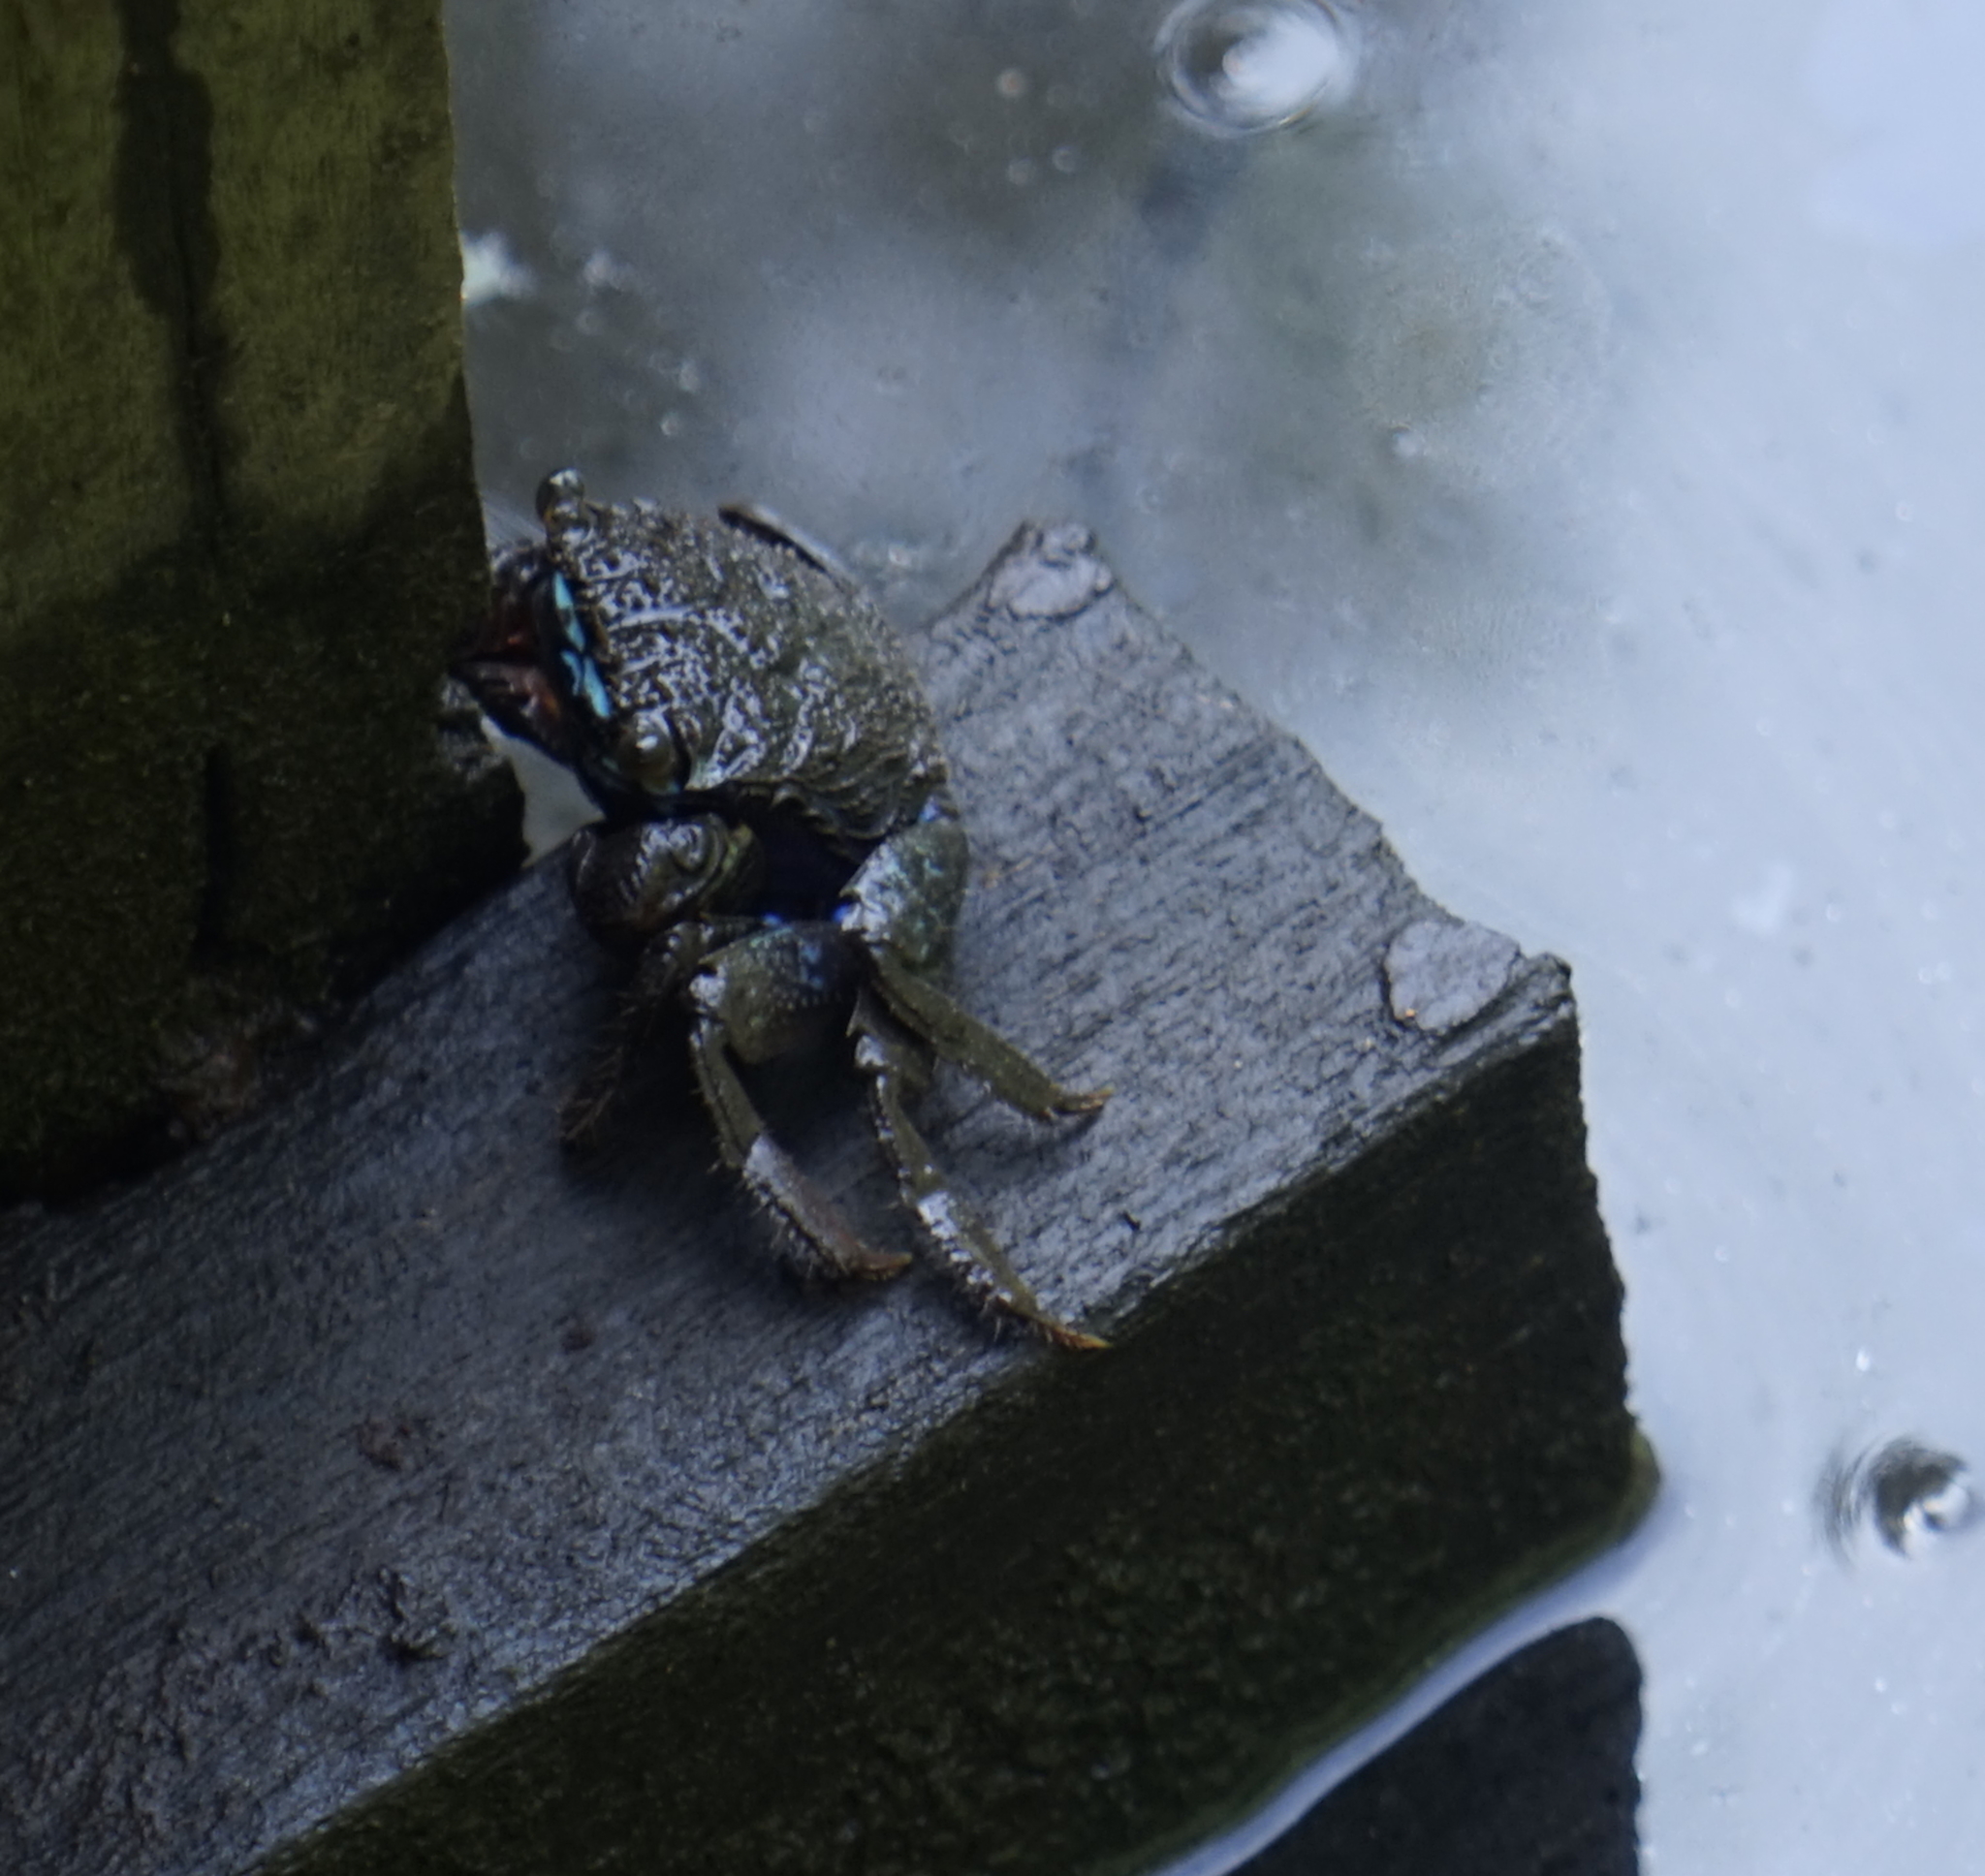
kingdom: Animalia
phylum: Arthropoda
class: Malacostraca
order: Decapoda
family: Sesarmidae
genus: Parasesarma
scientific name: Parasesarma indiarum
